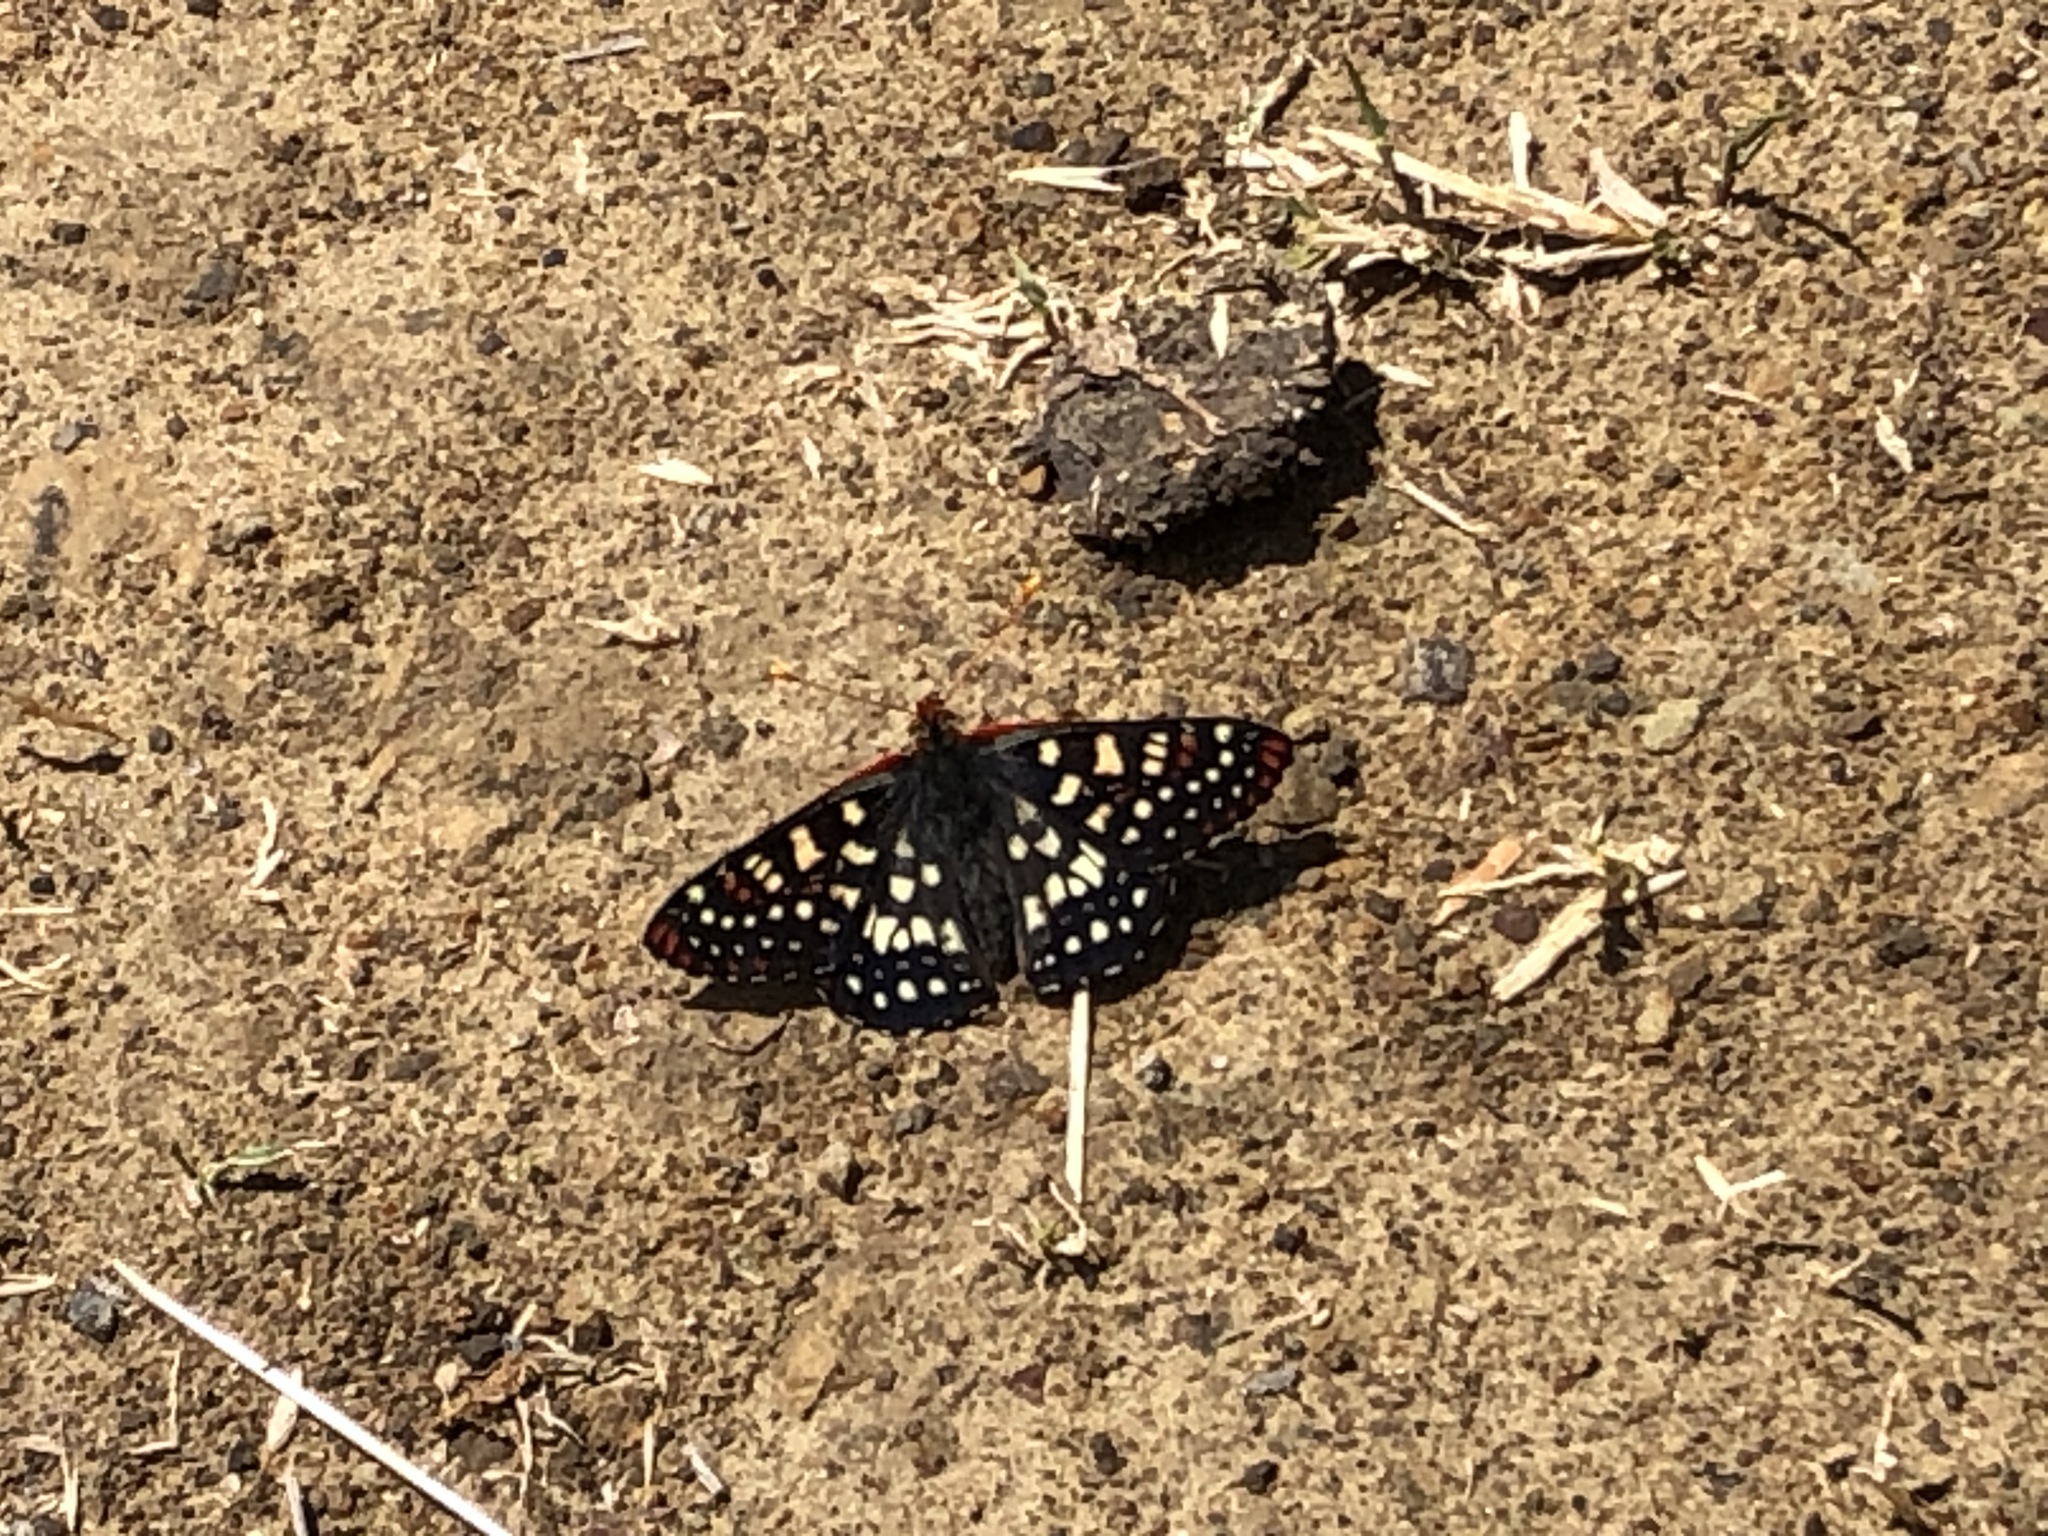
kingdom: Animalia
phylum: Arthropoda
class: Insecta
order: Lepidoptera
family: Nymphalidae
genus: Occidryas
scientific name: Occidryas chalcedona
